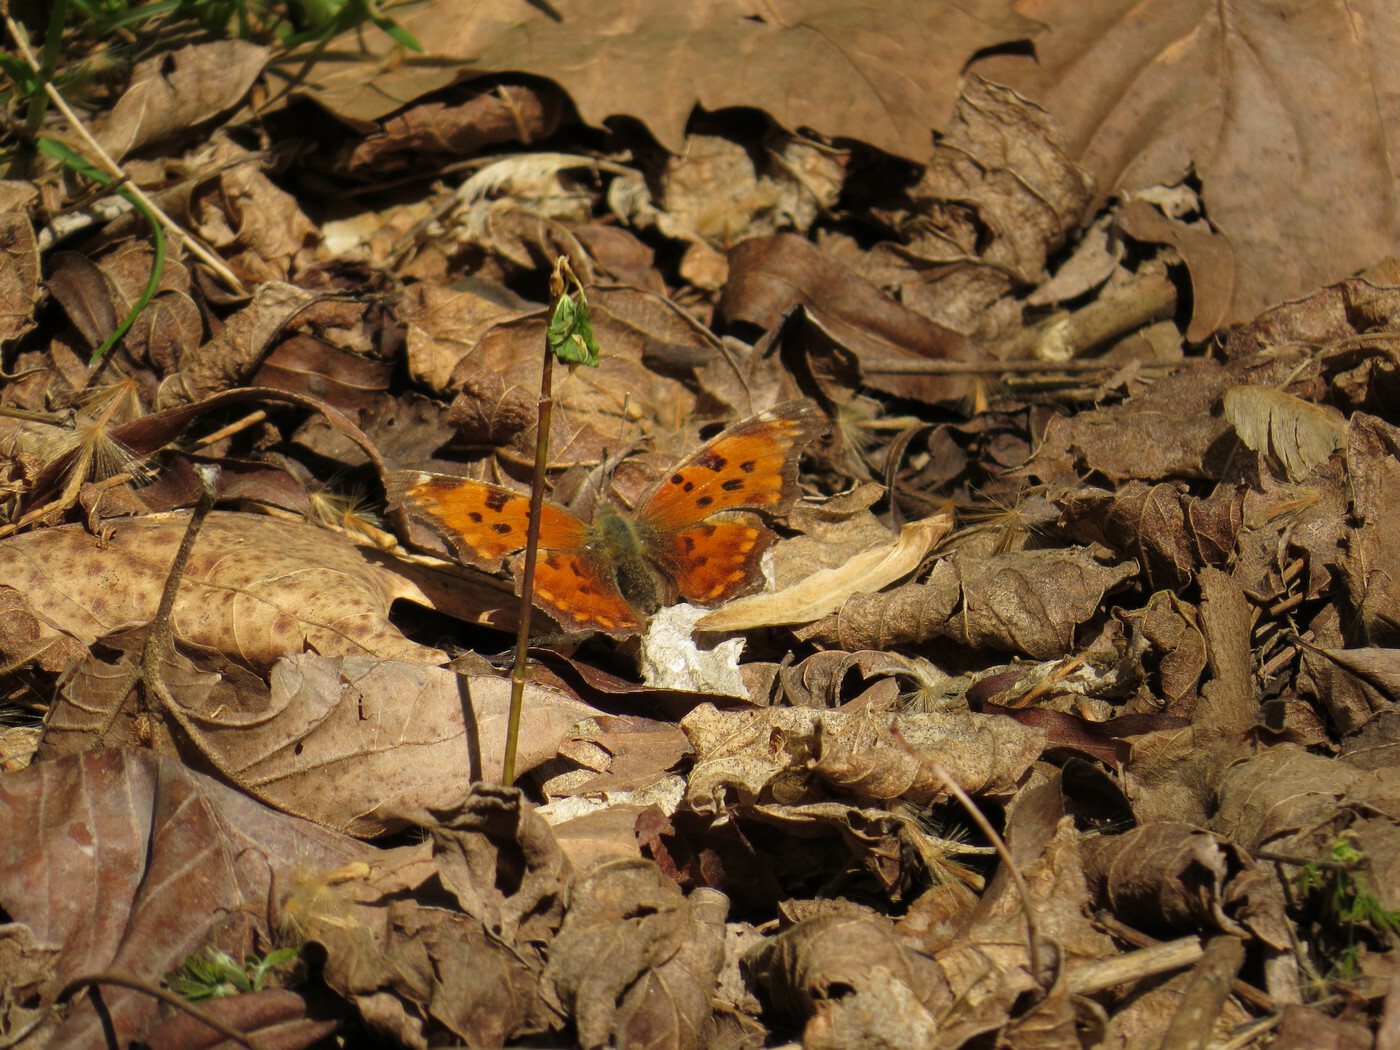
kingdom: Animalia
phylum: Arthropoda
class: Insecta
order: Lepidoptera
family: Nymphalidae
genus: Polygonia
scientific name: Polygonia comma
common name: Eastern comma
